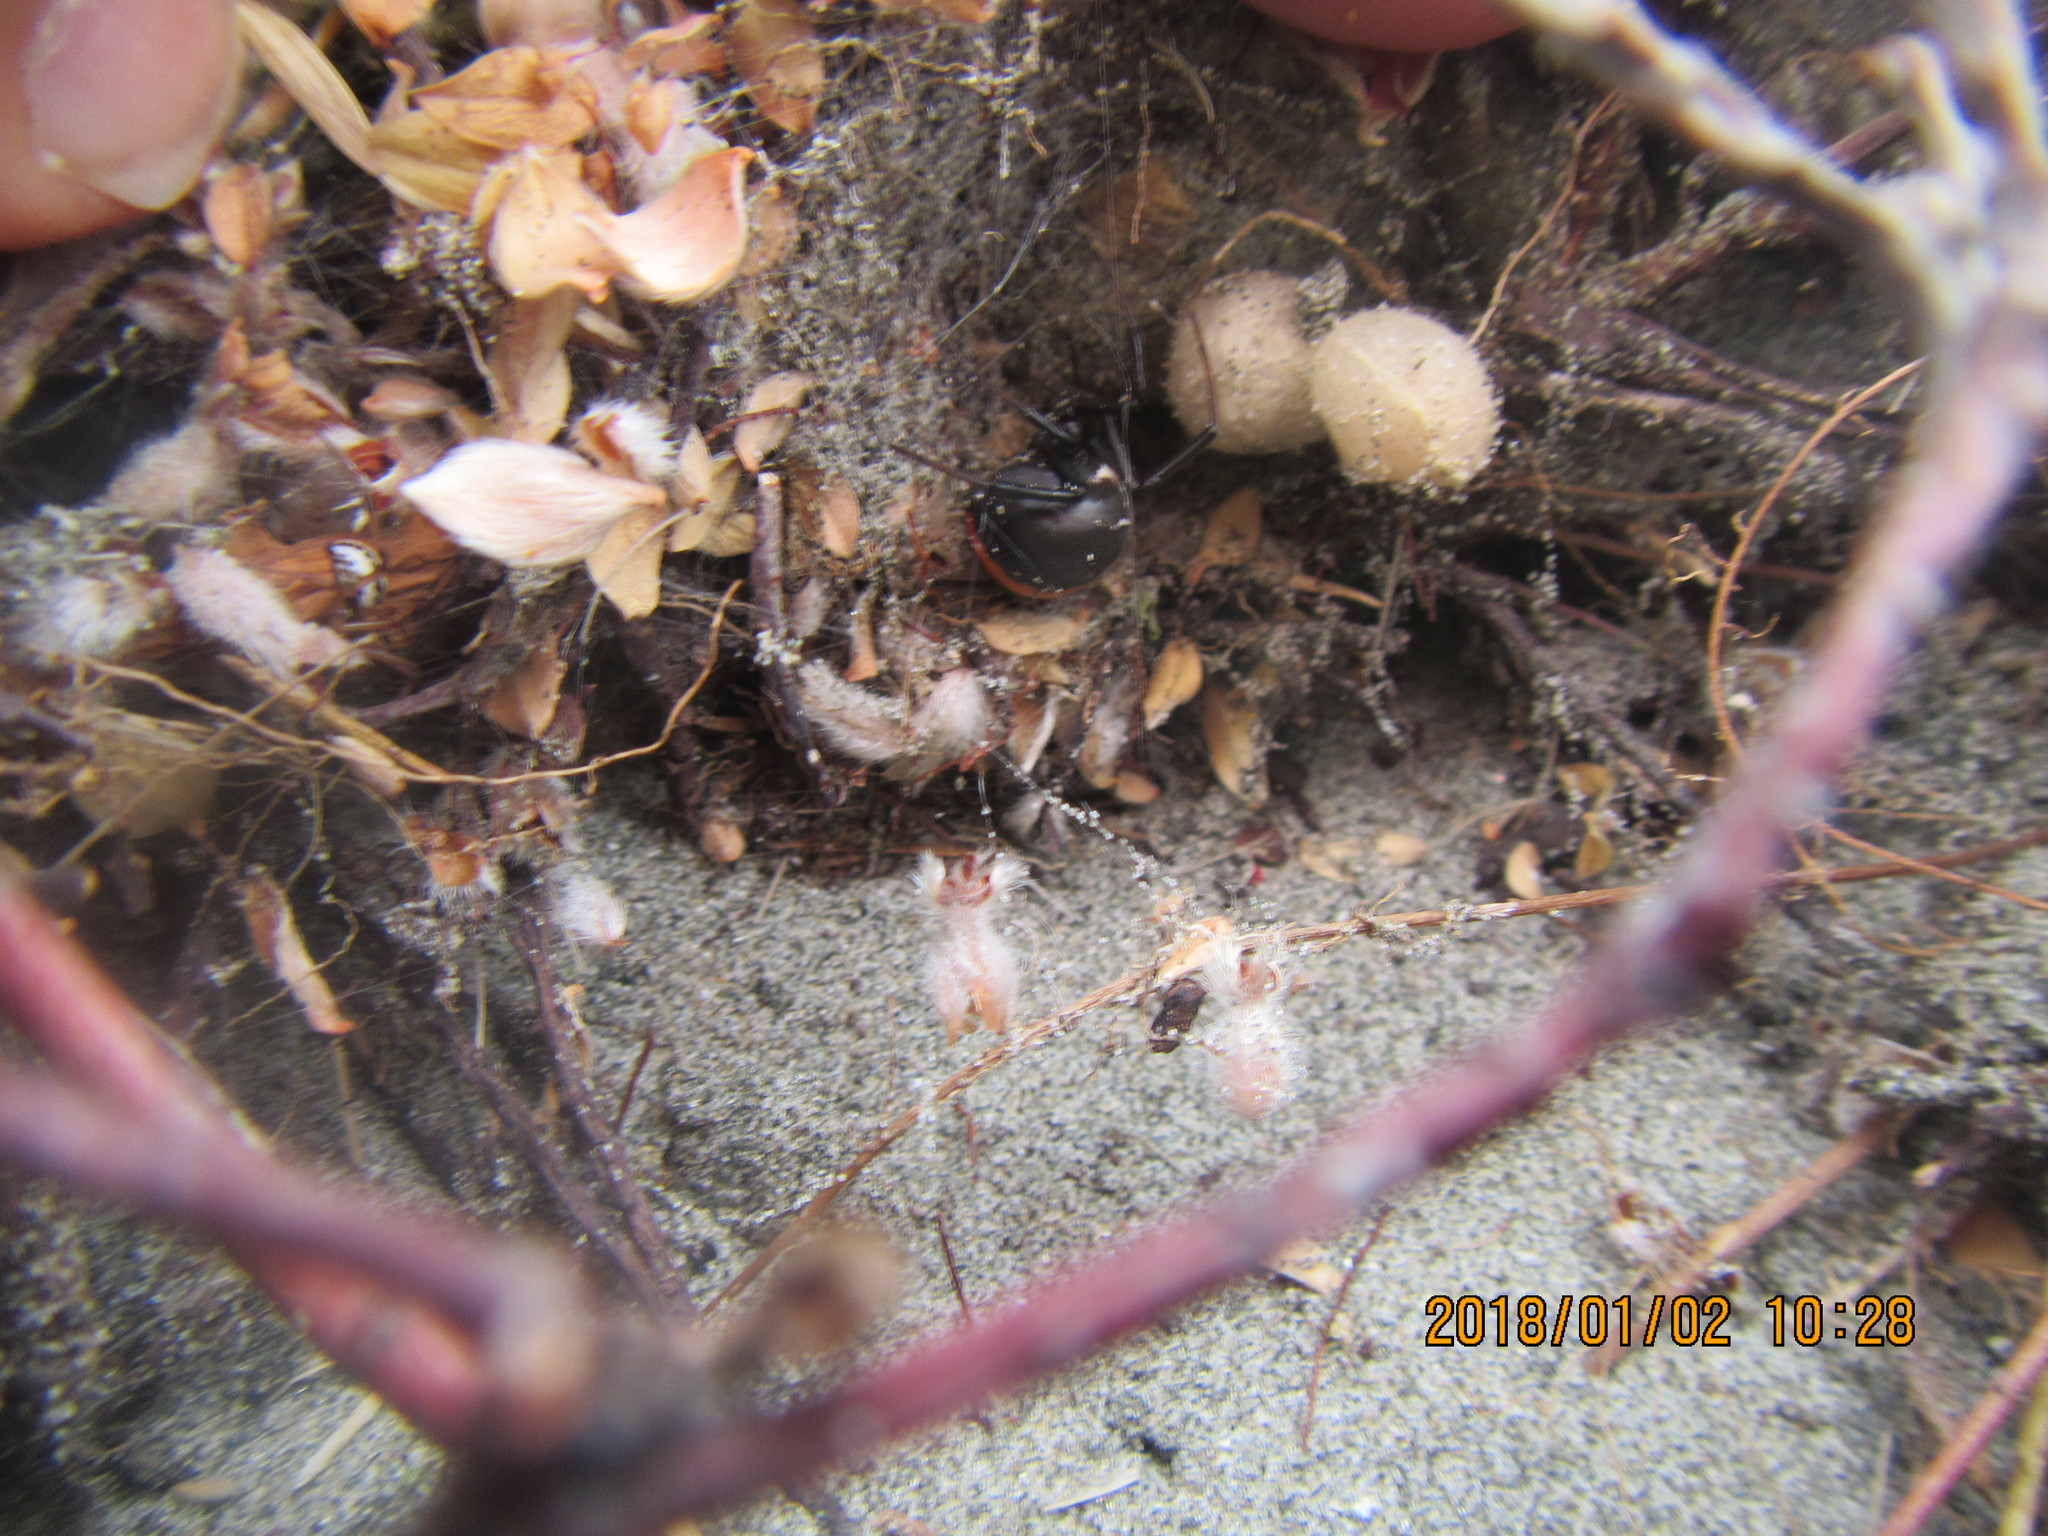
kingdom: Plantae
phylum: Tracheophyta
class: Magnoliopsida
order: Malvales
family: Thymelaeaceae
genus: Pimelea
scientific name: Pimelea villosa
